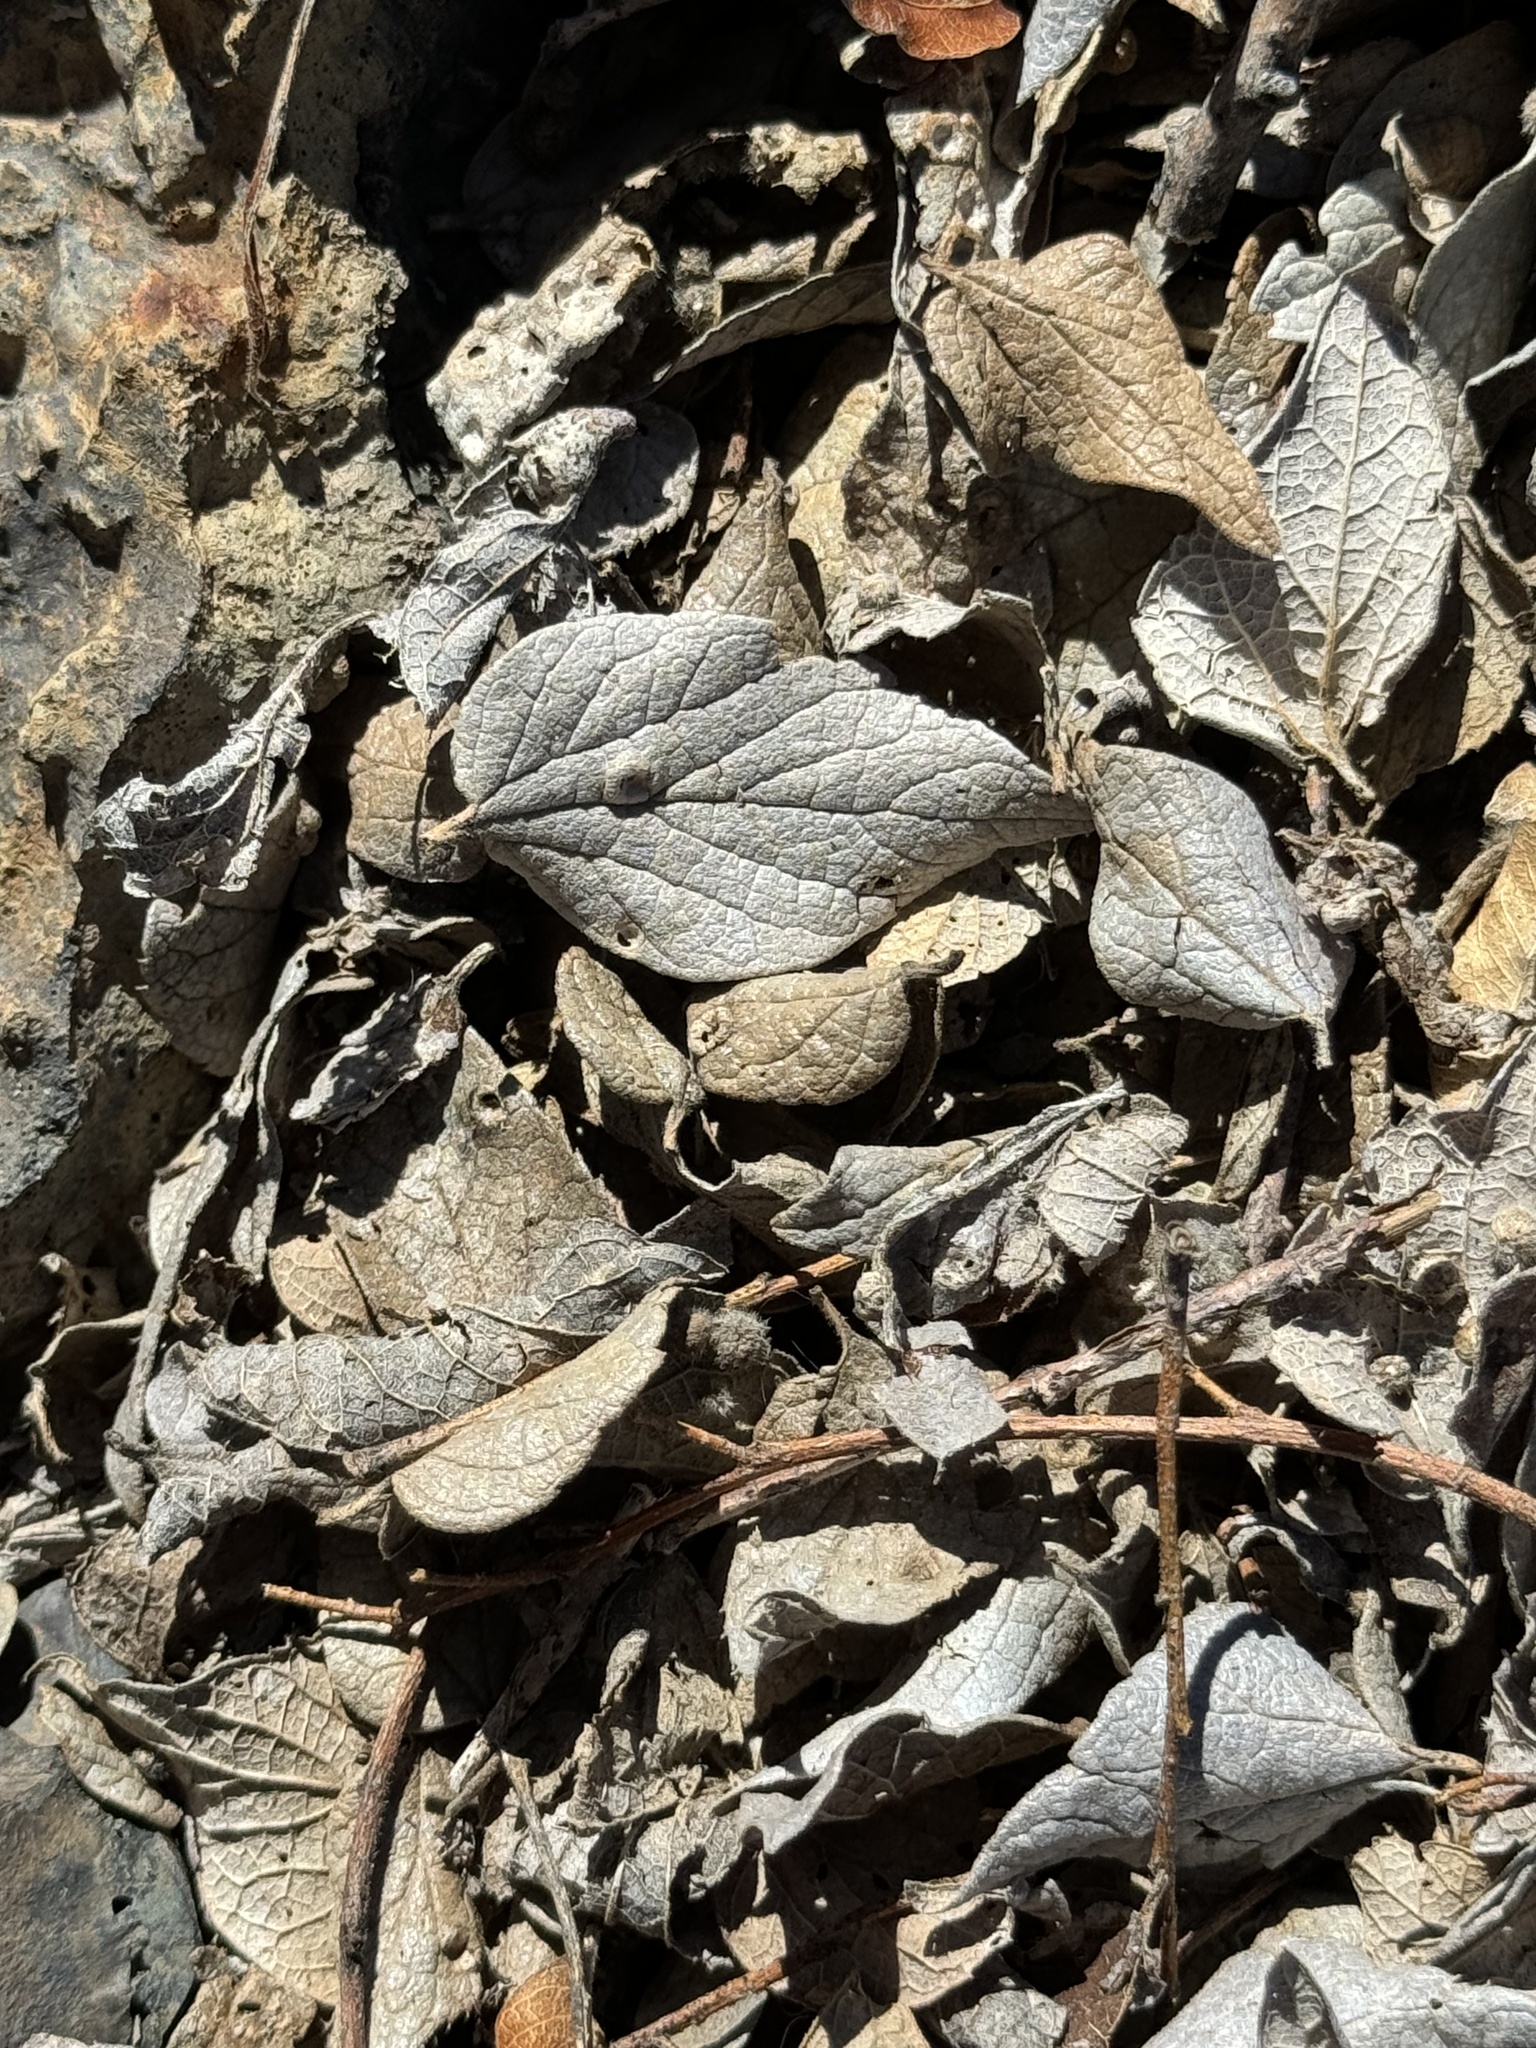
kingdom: Plantae
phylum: Tracheophyta
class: Magnoliopsida
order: Rosales
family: Cannabaceae
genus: Celtis
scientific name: Celtis reticulata
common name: Netleaf hackberry
